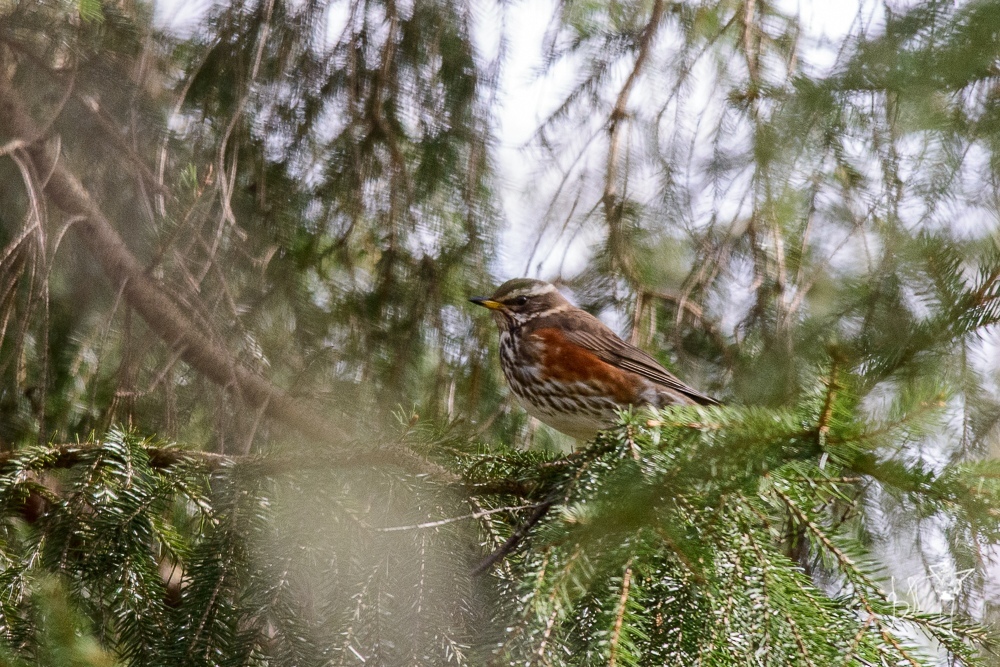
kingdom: Animalia
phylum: Chordata
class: Aves
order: Passeriformes
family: Turdidae
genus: Turdus
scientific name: Turdus iliacus
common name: Redwing
